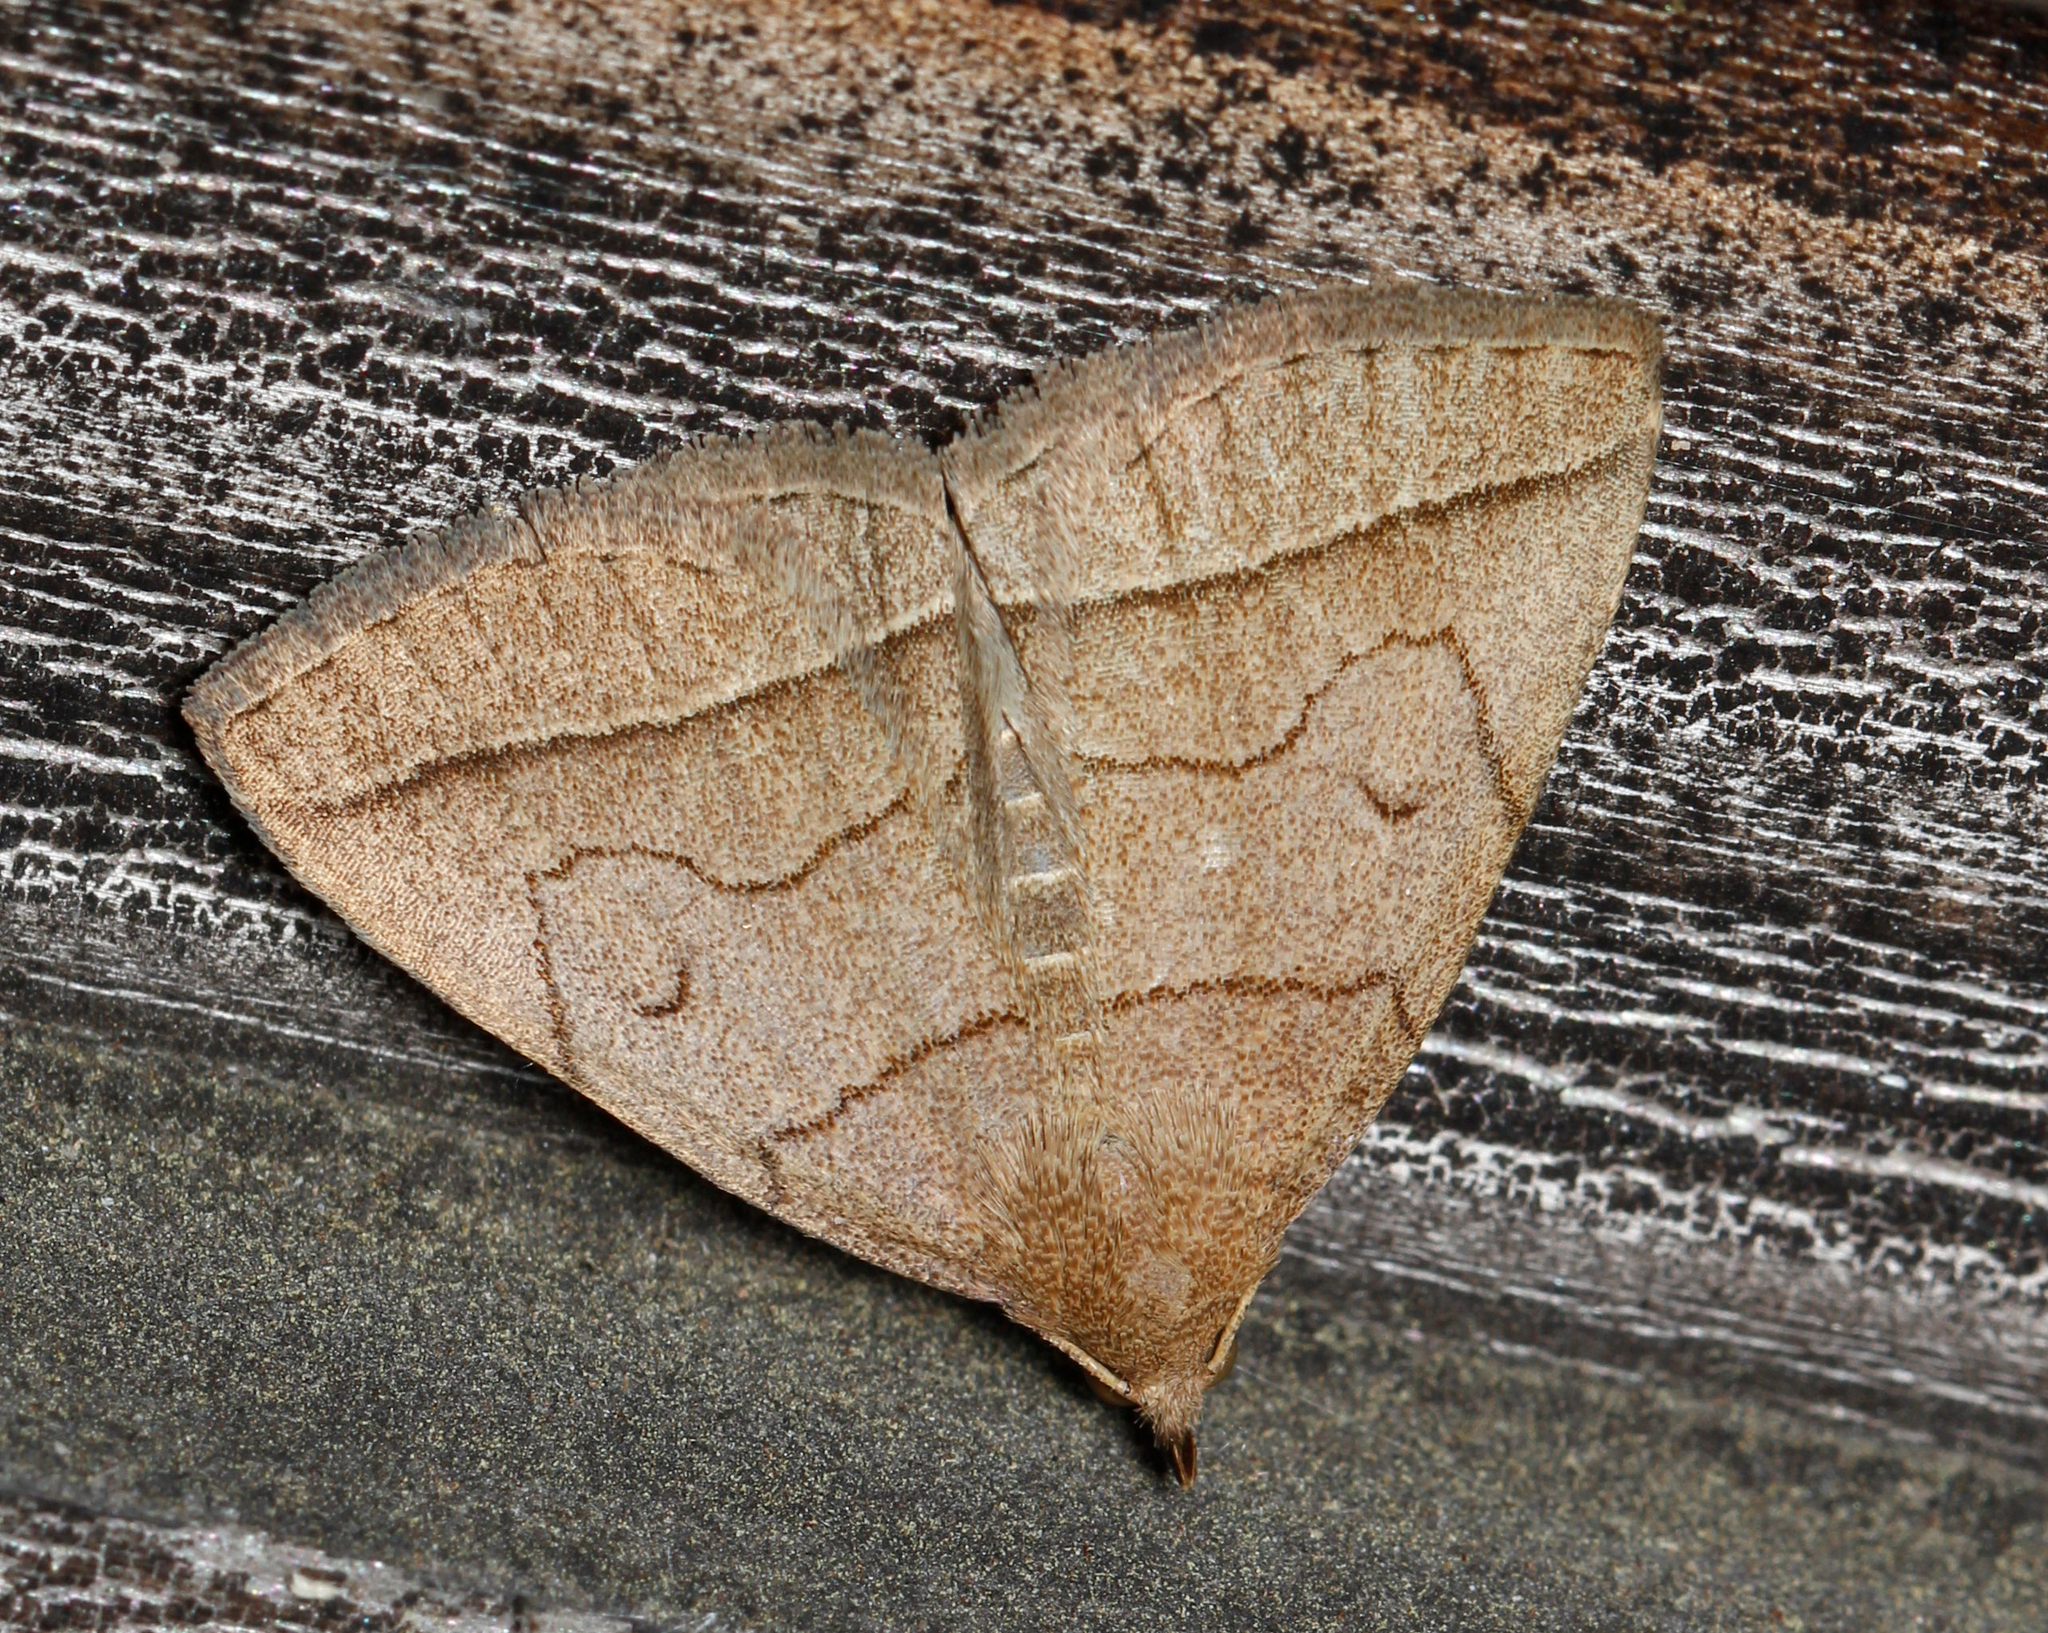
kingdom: Animalia
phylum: Arthropoda
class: Insecta
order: Lepidoptera
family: Erebidae
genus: Zanclognatha
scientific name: Zanclognatha cruralis
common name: Early fan-foot
